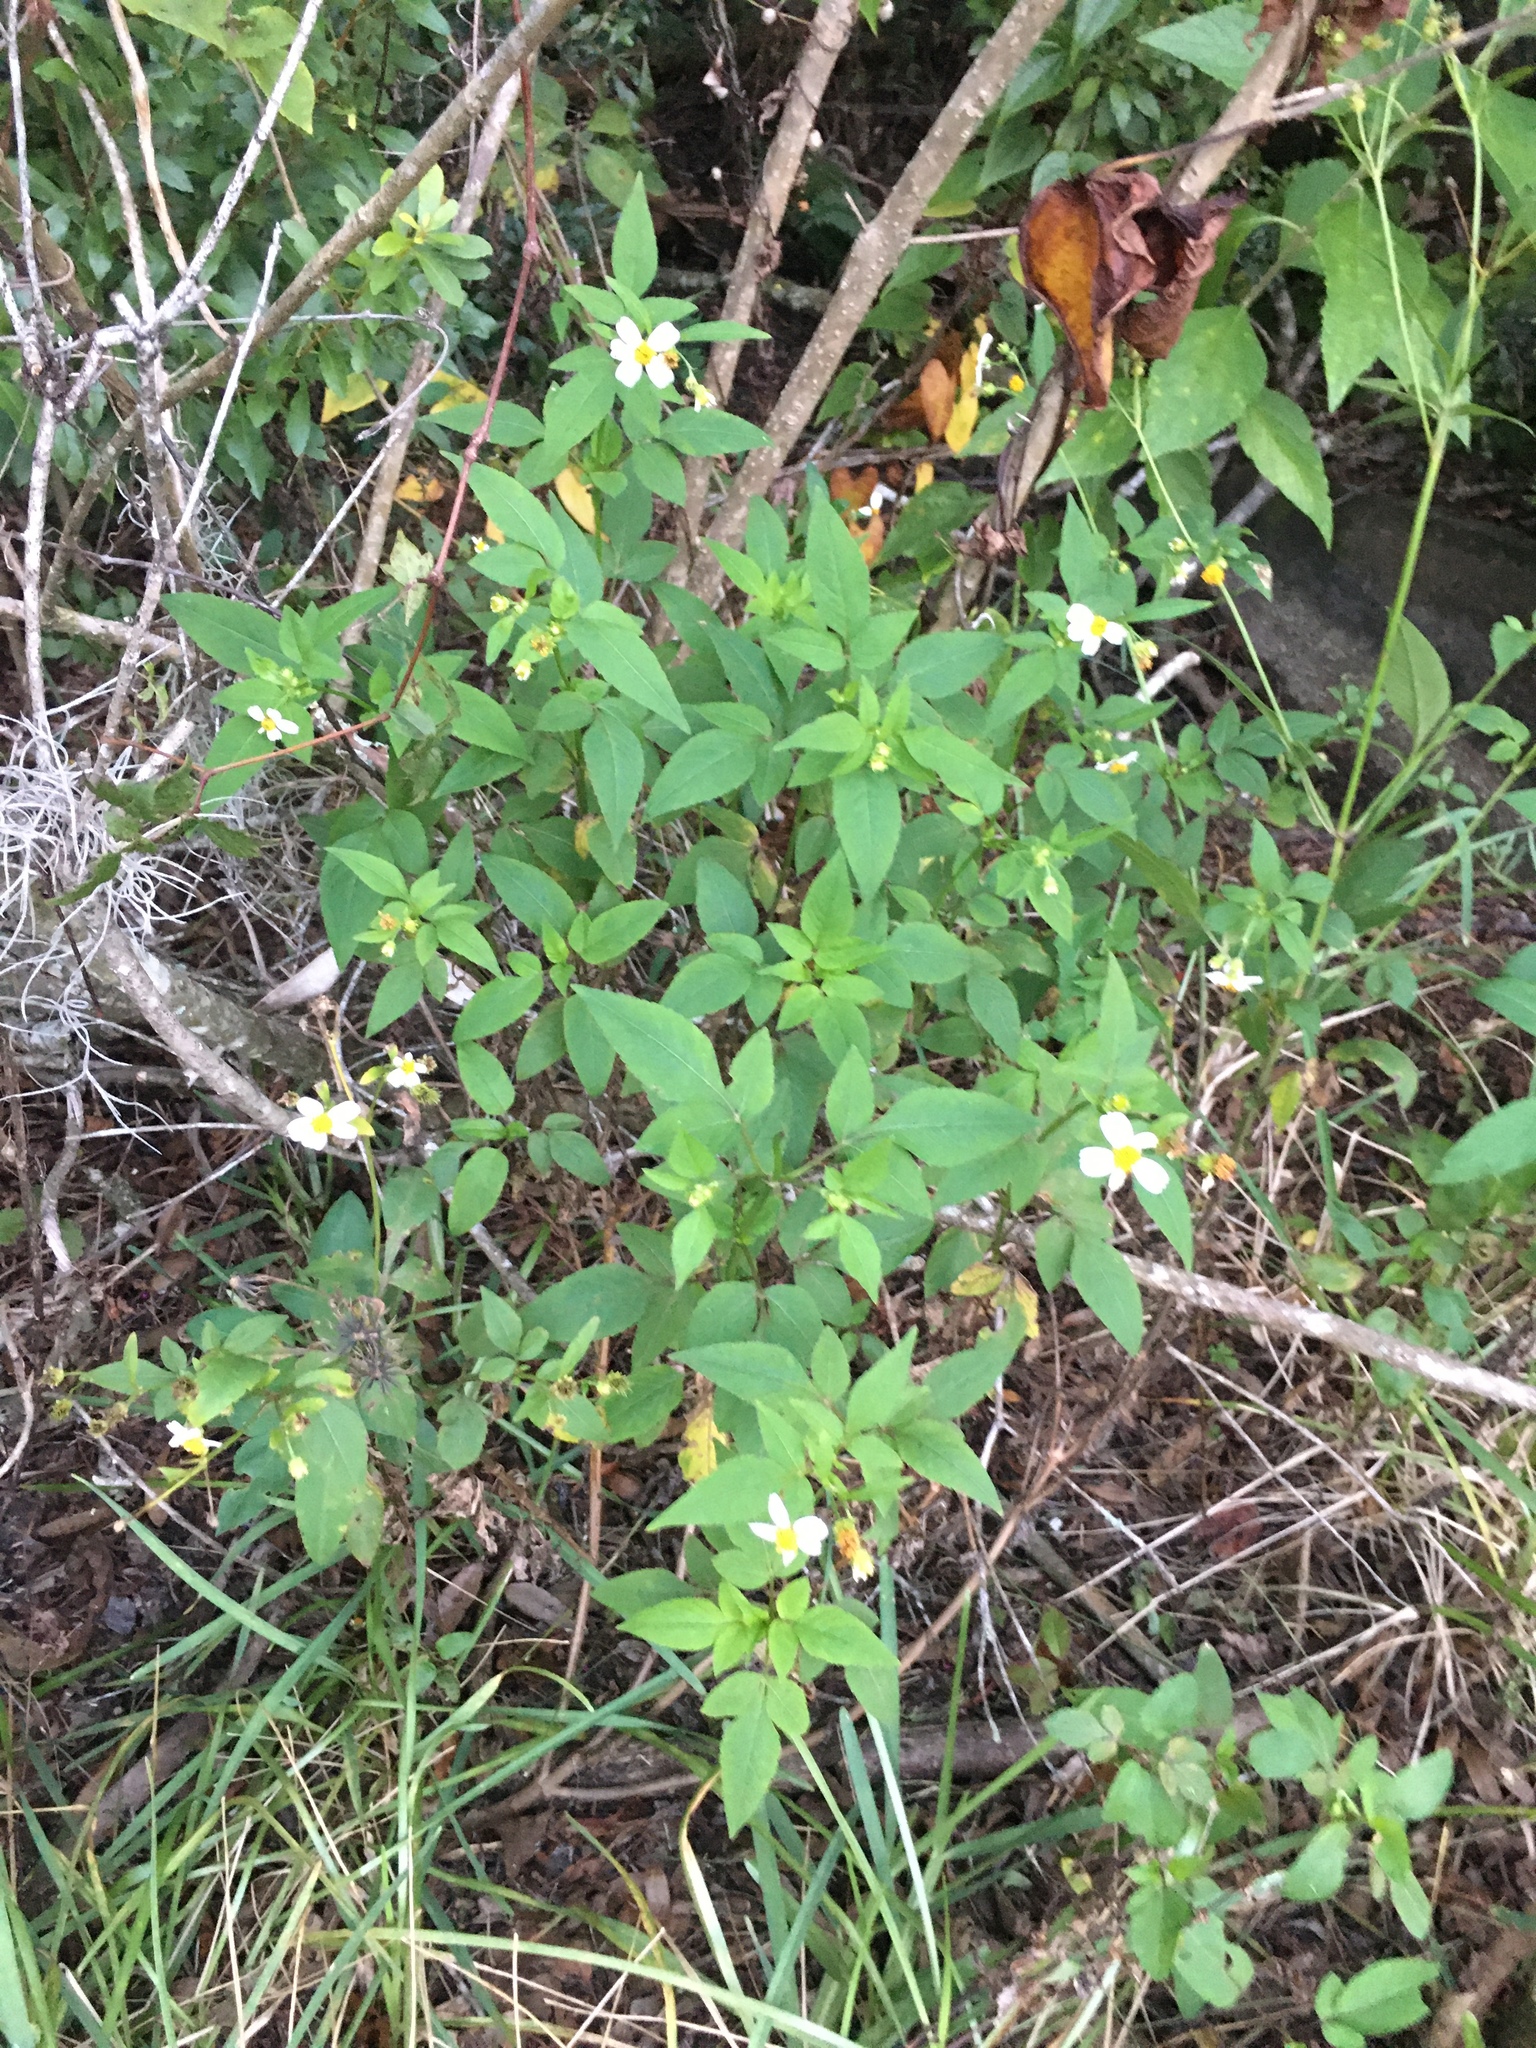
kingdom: Plantae
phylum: Tracheophyta
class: Magnoliopsida
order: Asterales
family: Asteraceae
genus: Bidens
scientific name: Bidens alba
